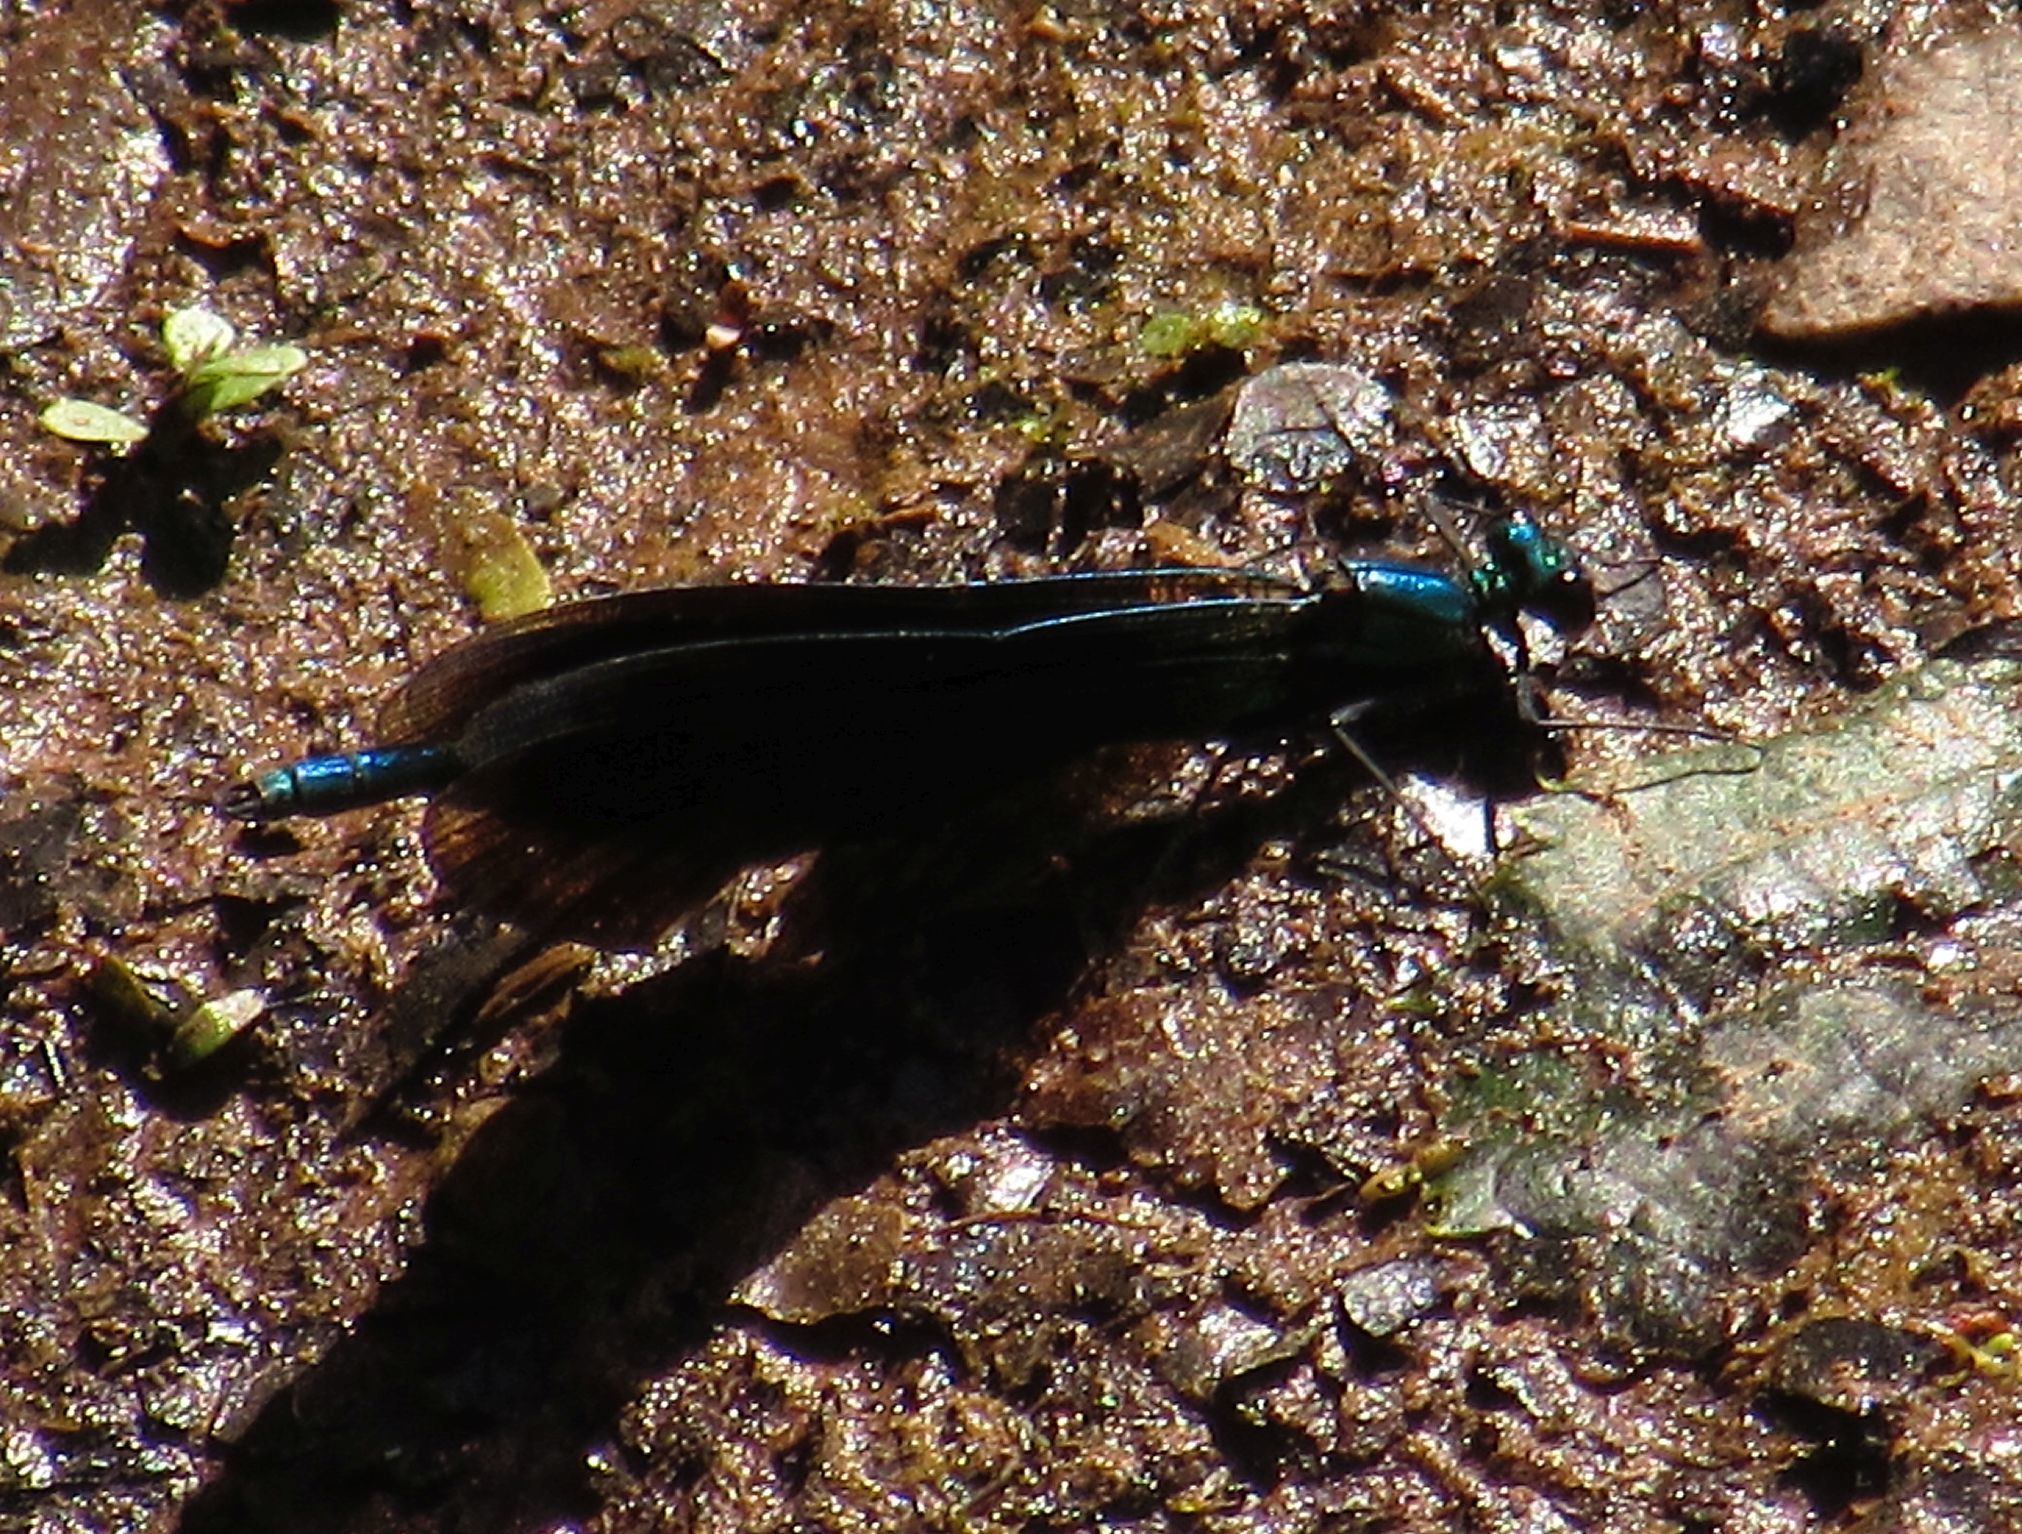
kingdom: Animalia
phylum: Arthropoda
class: Insecta
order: Odonata
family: Calopterygidae
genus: Calopteryx
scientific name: Calopteryx virgo
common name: Beautiful demoiselle
